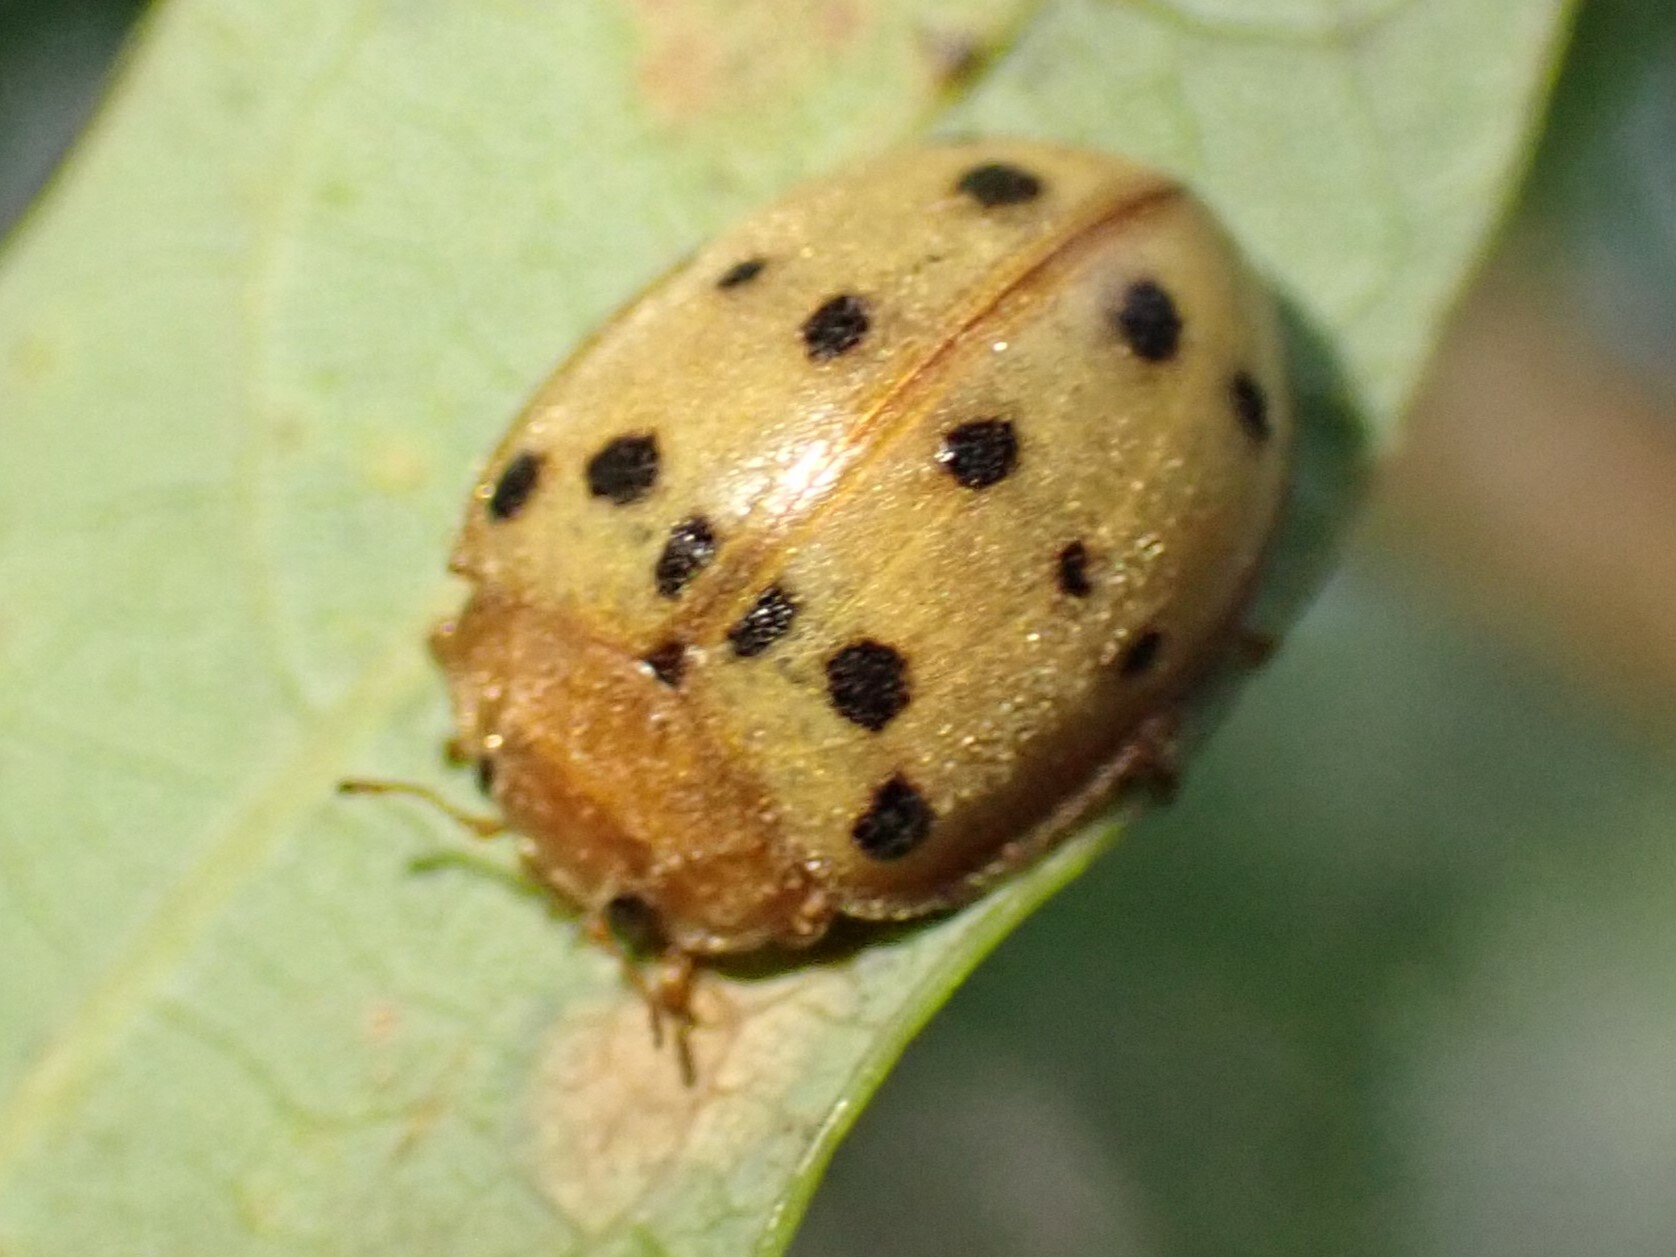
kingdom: Animalia
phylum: Arthropoda
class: Insecta
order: Coleoptera
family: Coccinellidae
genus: Epilachna
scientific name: Epilachna varivestis
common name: Ladybird beetle
